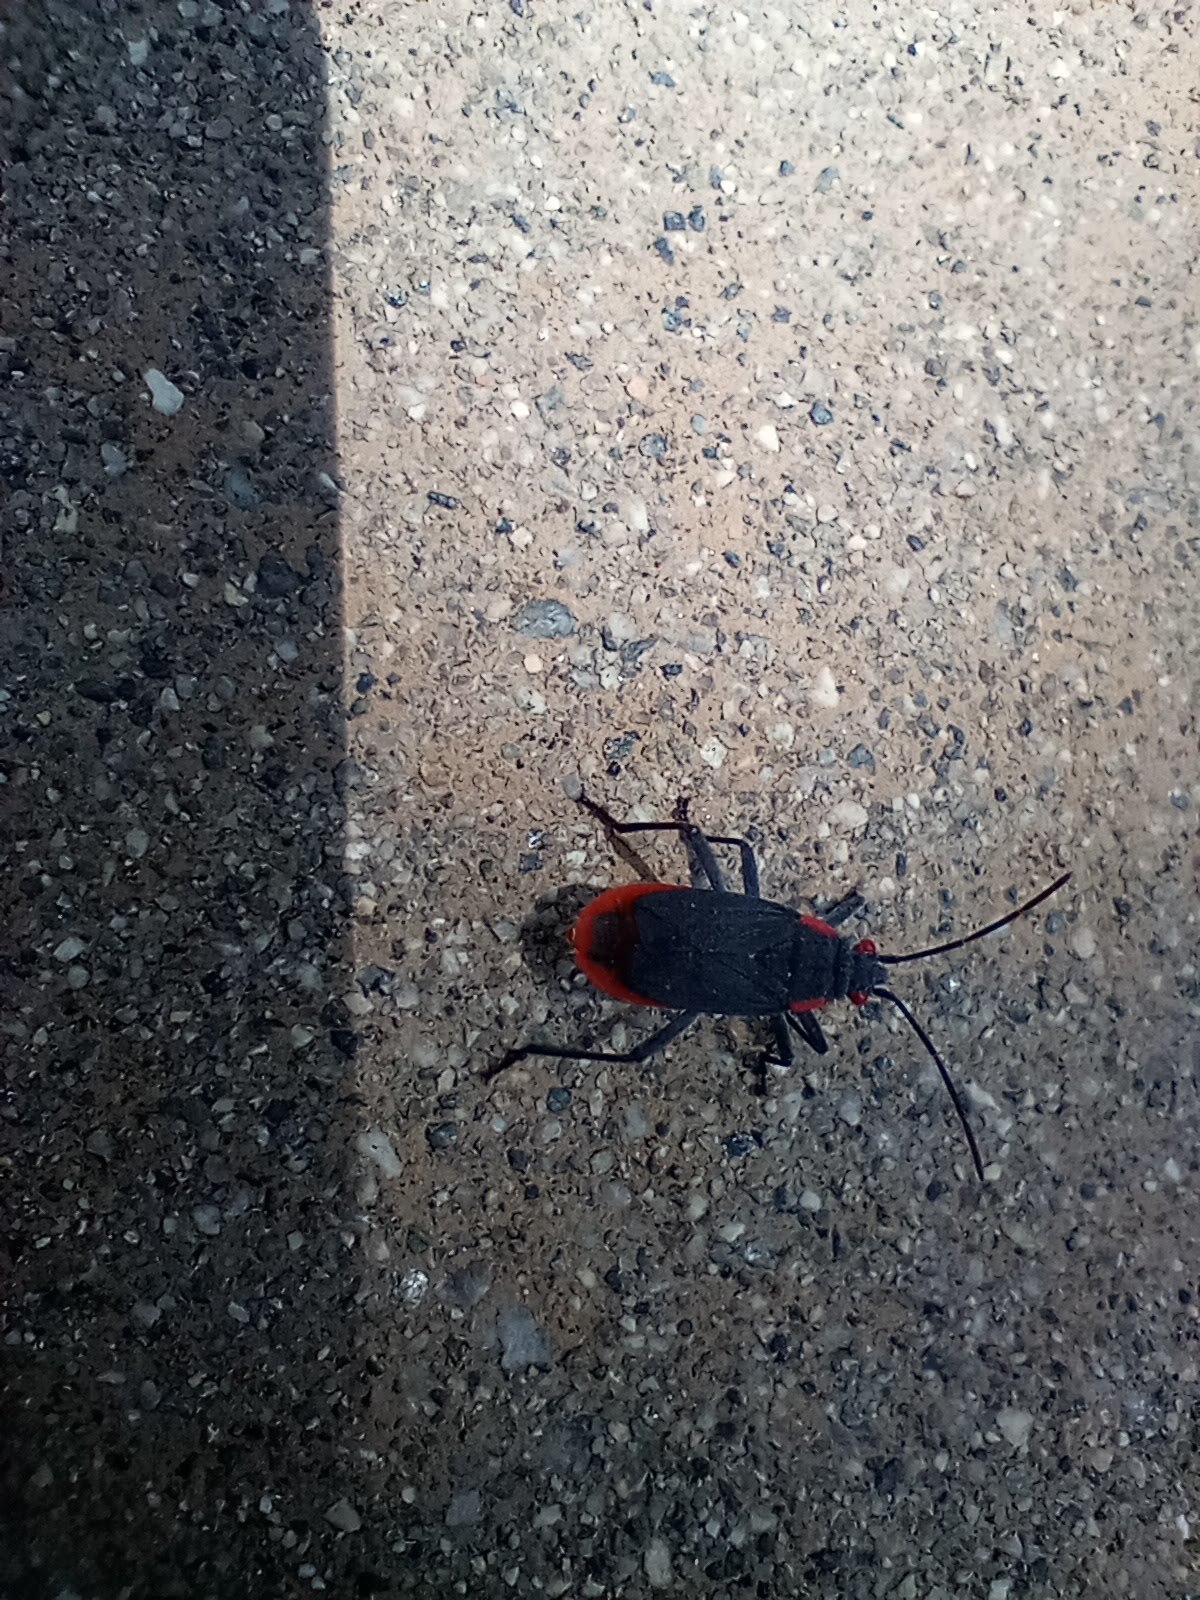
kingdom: Animalia
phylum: Arthropoda
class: Insecta
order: Hemiptera
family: Rhopalidae
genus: Jadera
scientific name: Jadera haematoloma
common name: Red-shouldered bug
